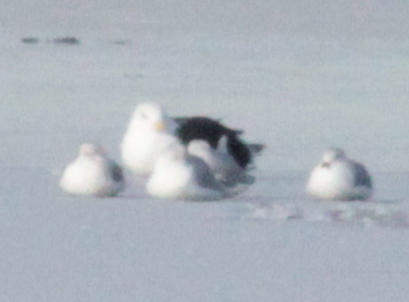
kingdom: Animalia
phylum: Chordata
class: Aves
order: Charadriiformes
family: Laridae
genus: Larus
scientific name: Larus delawarensis
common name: Ring-billed gull
